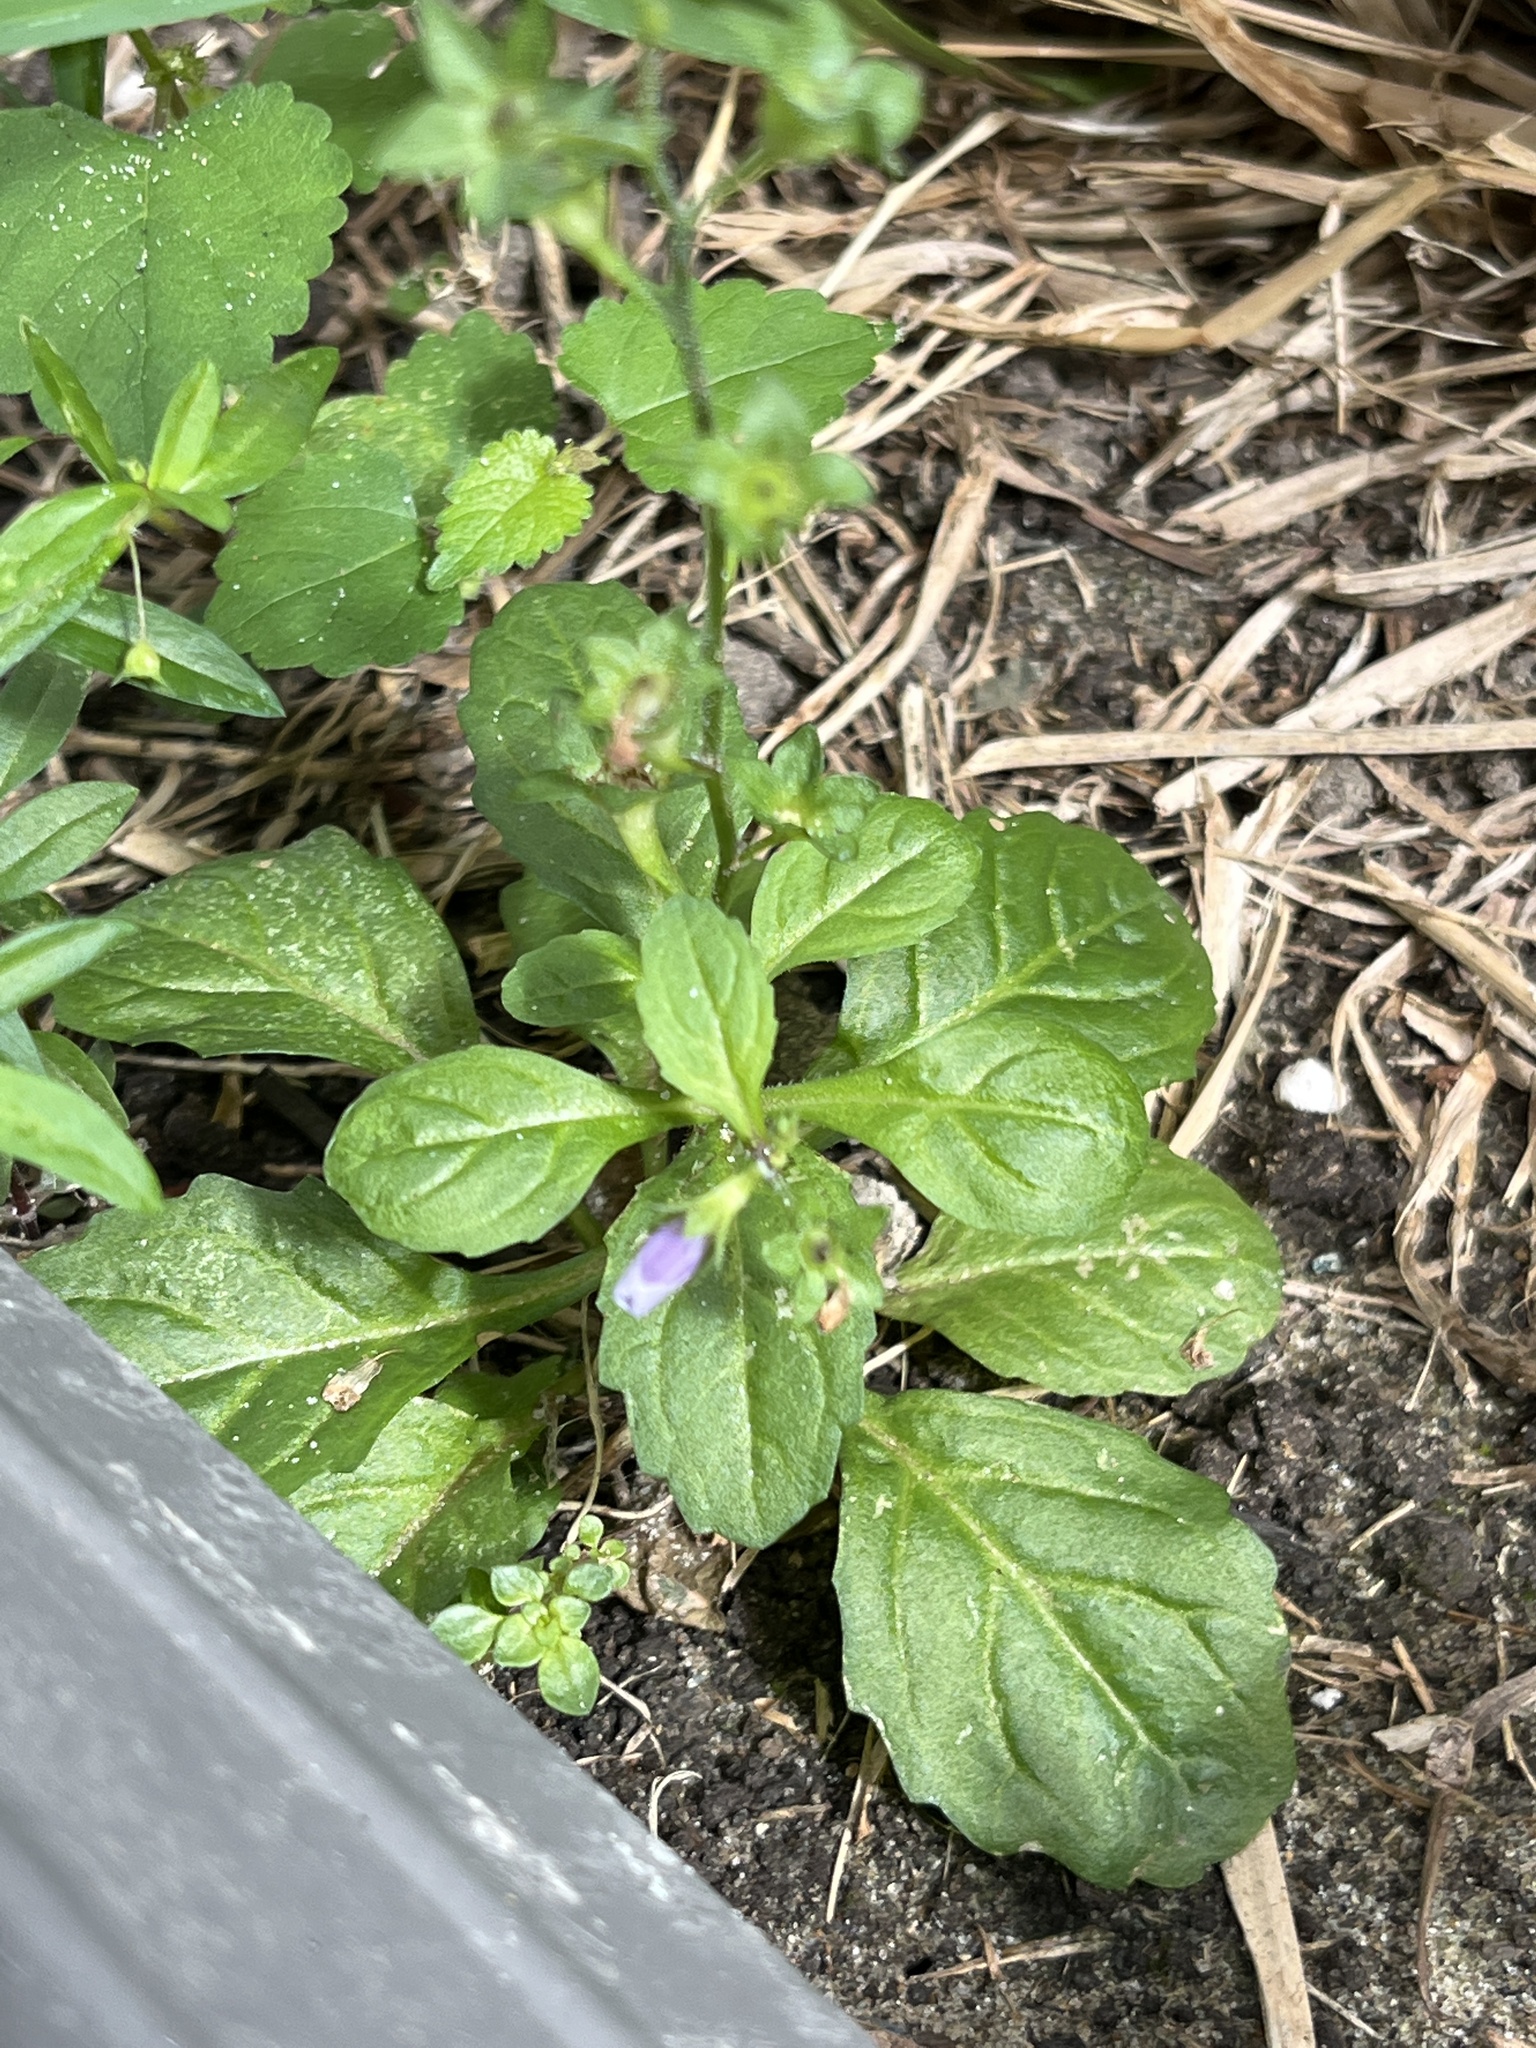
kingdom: Plantae
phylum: Tracheophyta
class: Magnoliopsida
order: Lamiales
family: Mazaceae
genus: Mazus
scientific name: Mazus pumilus
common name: Japanese mazus
